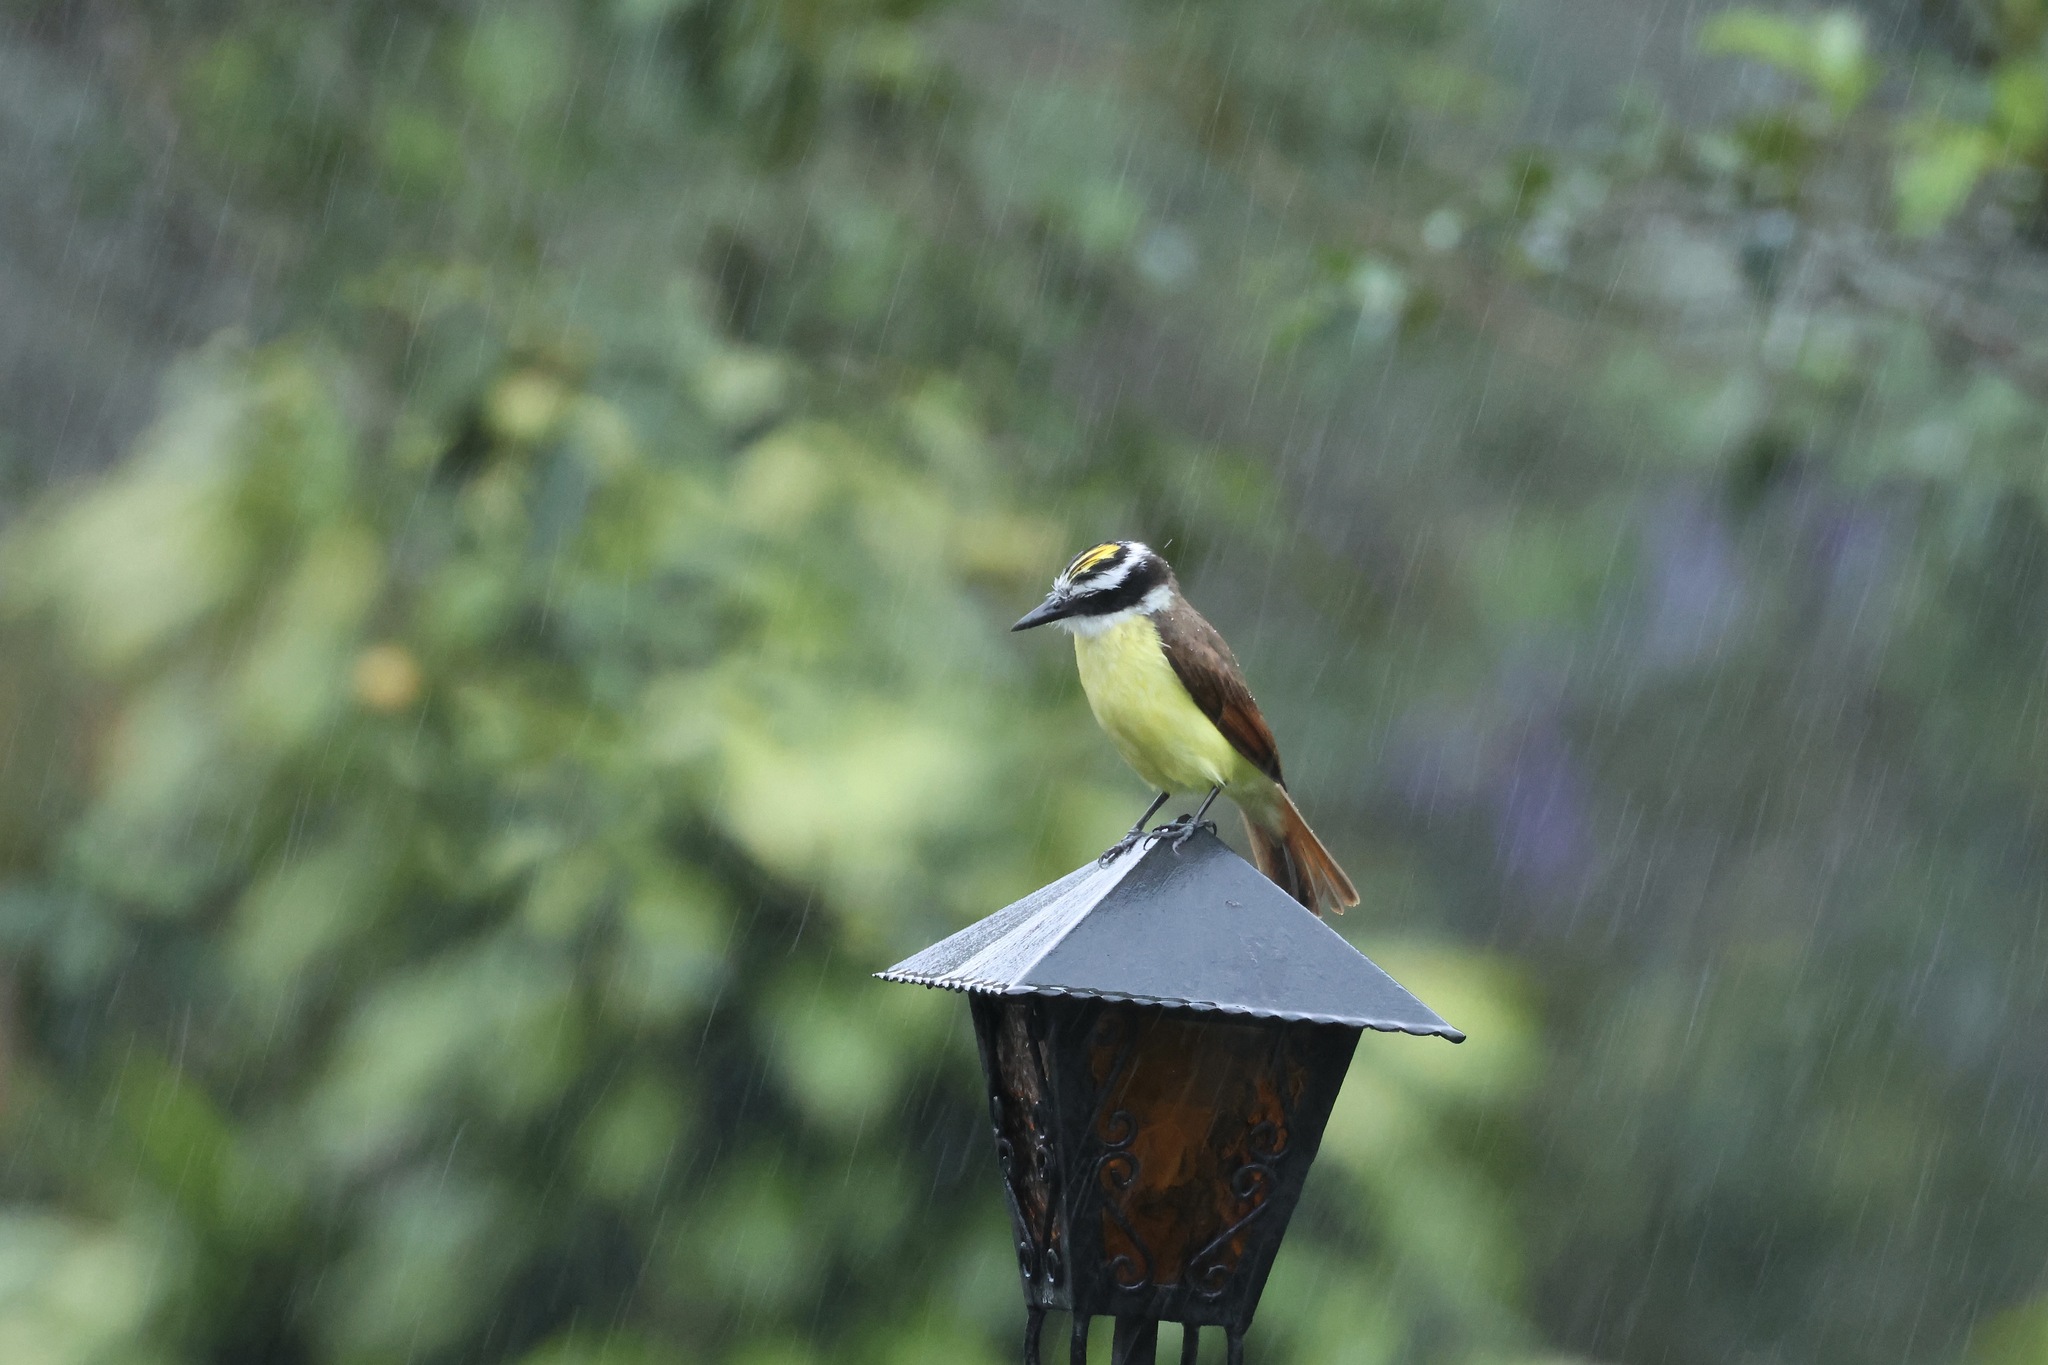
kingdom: Animalia
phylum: Chordata
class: Aves
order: Passeriformes
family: Tyrannidae
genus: Pitangus
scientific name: Pitangus sulphuratus
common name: Great kiskadee
